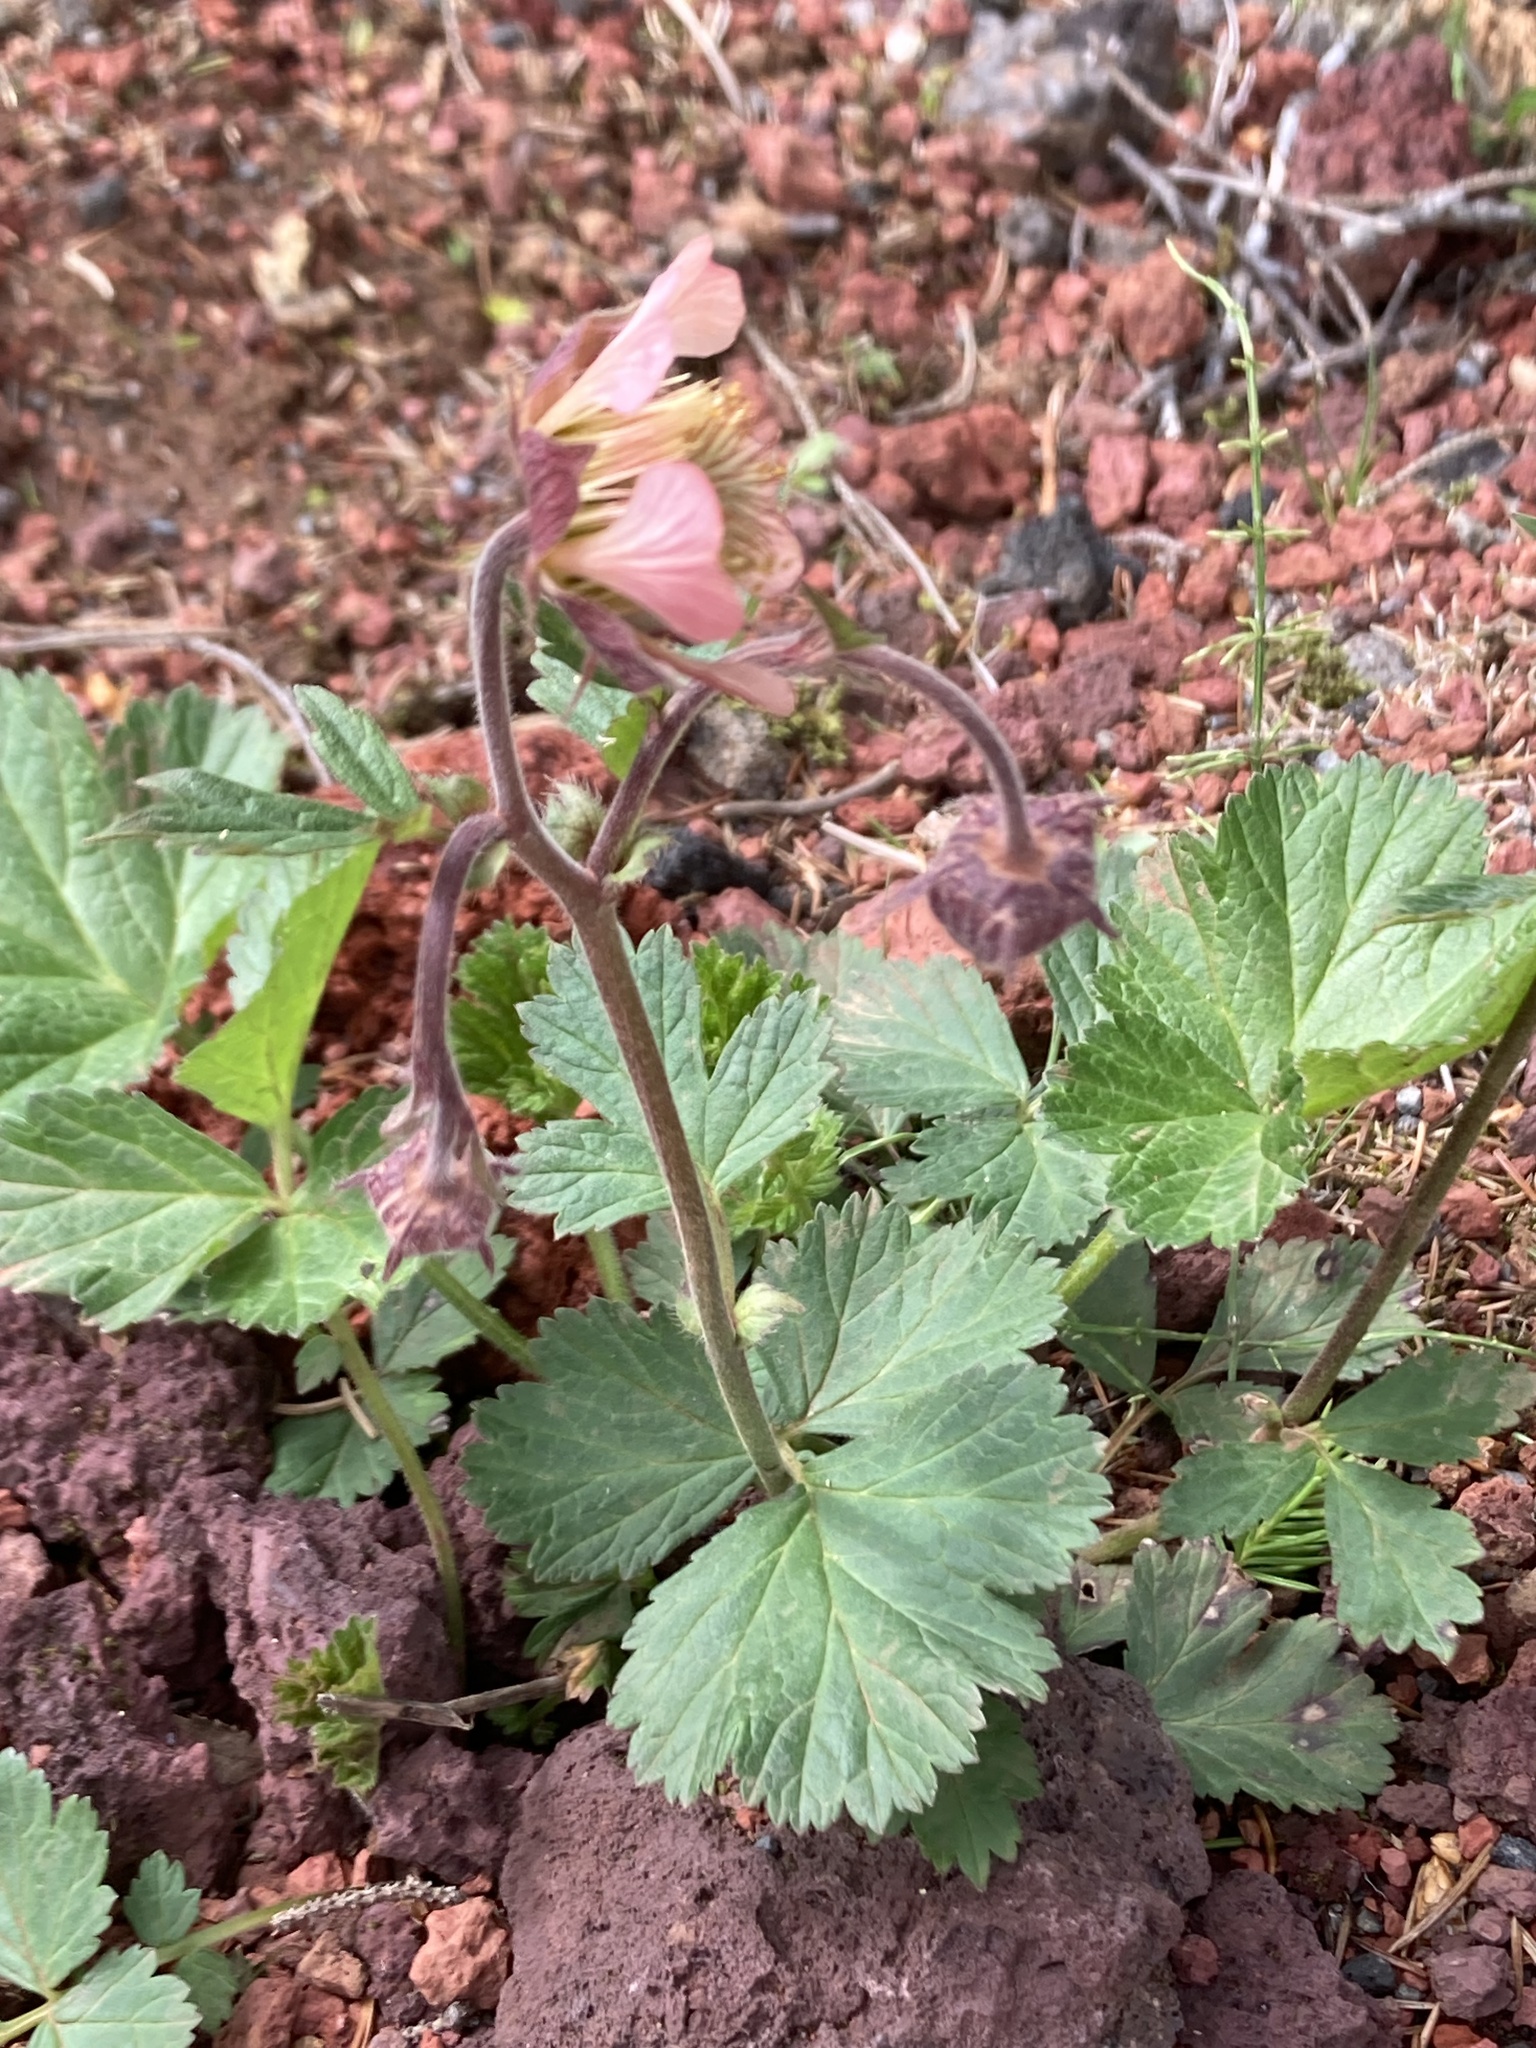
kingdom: Plantae
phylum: Tracheophyta
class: Magnoliopsida
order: Rosales
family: Rosaceae
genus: Geum
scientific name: Geum rivale
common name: Water avens
